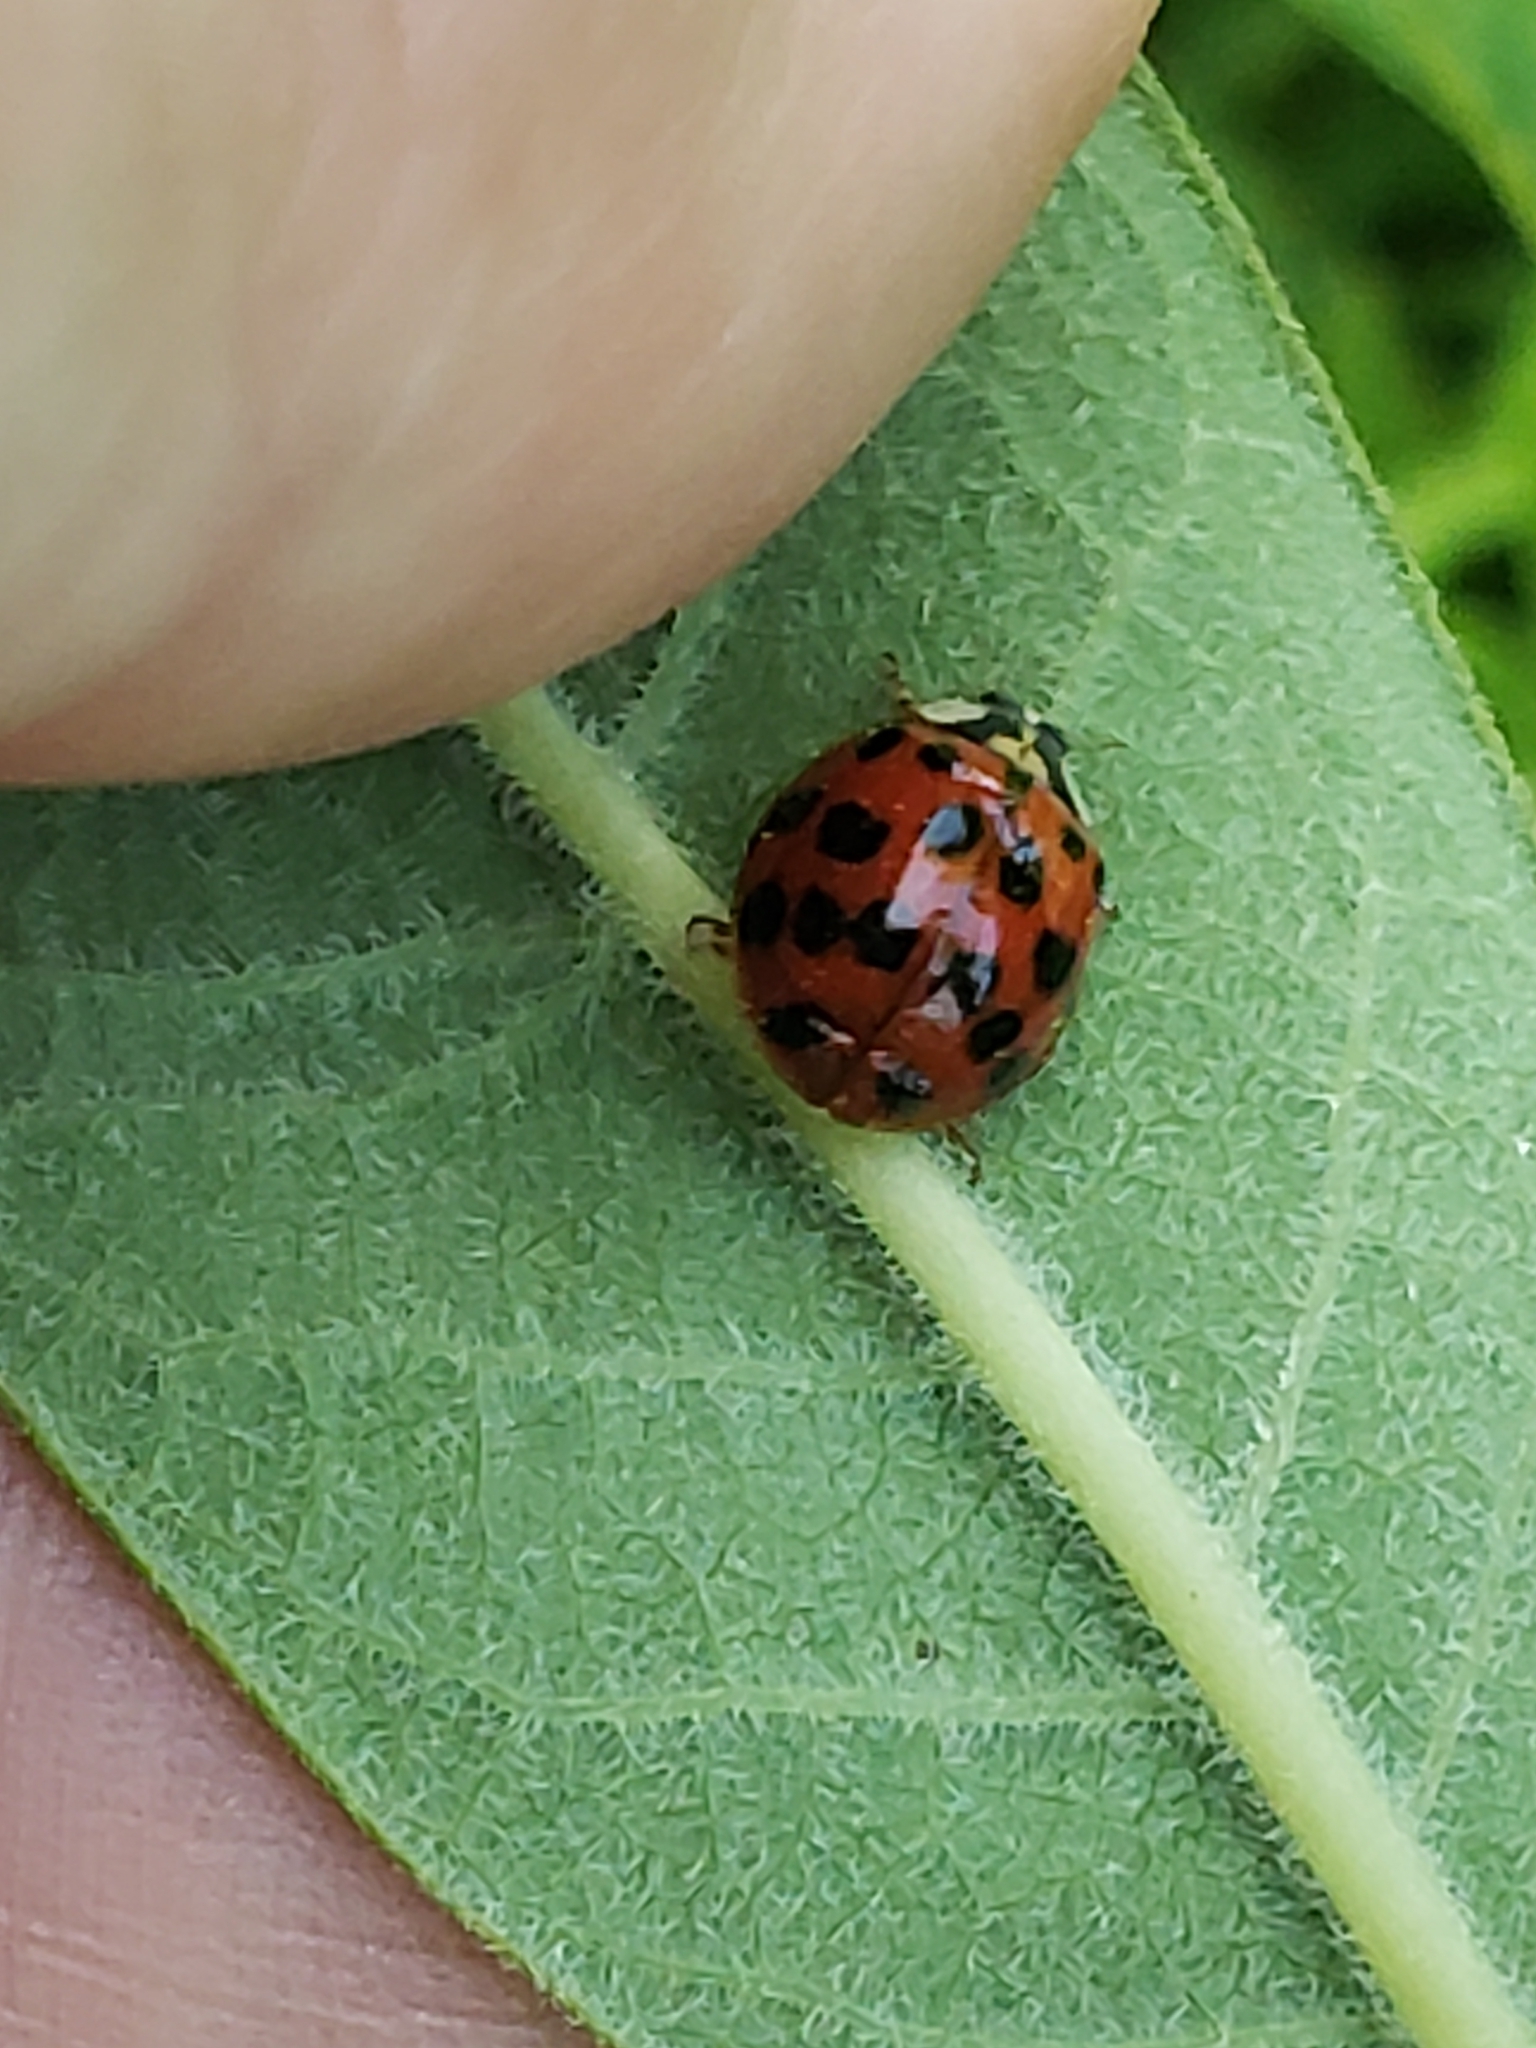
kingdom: Animalia
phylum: Arthropoda
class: Insecta
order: Coleoptera
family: Coccinellidae
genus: Harmonia
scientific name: Harmonia axyridis
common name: Harlequin ladybird
